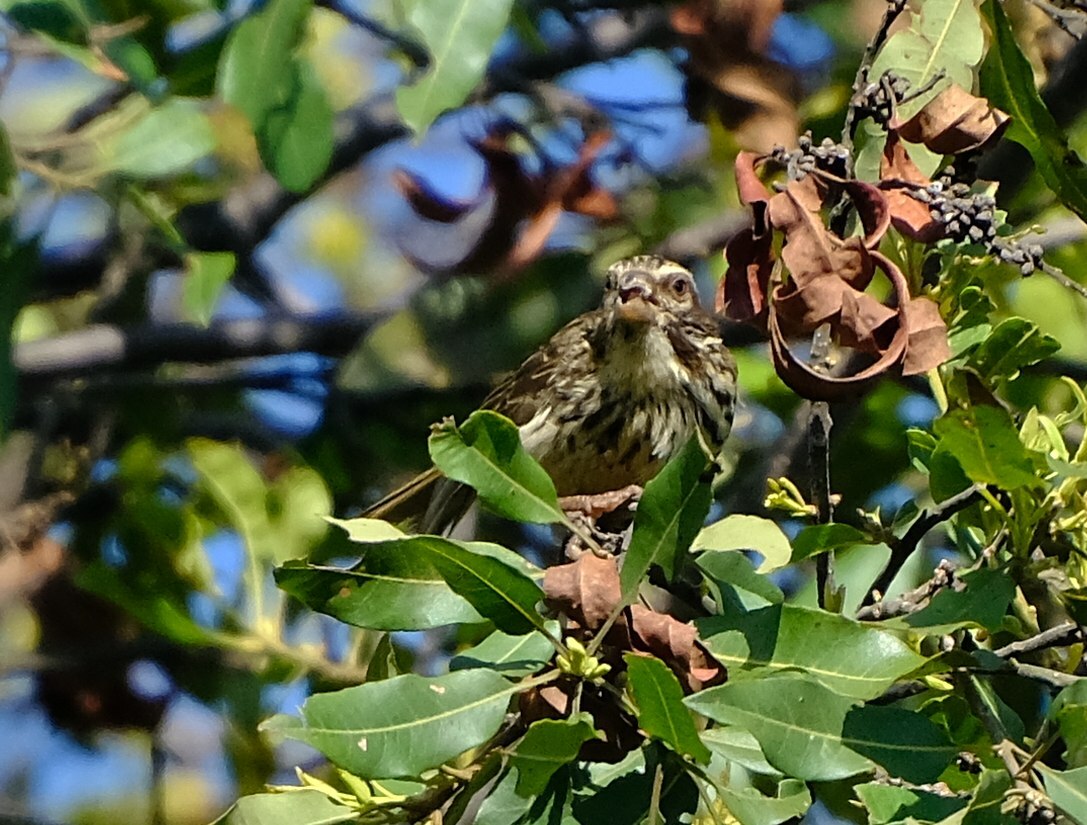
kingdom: Animalia
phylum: Chordata
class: Aves
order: Passeriformes
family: Fringillidae
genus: Crithagra
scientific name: Crithagra striolata
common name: Streaky seedeater
